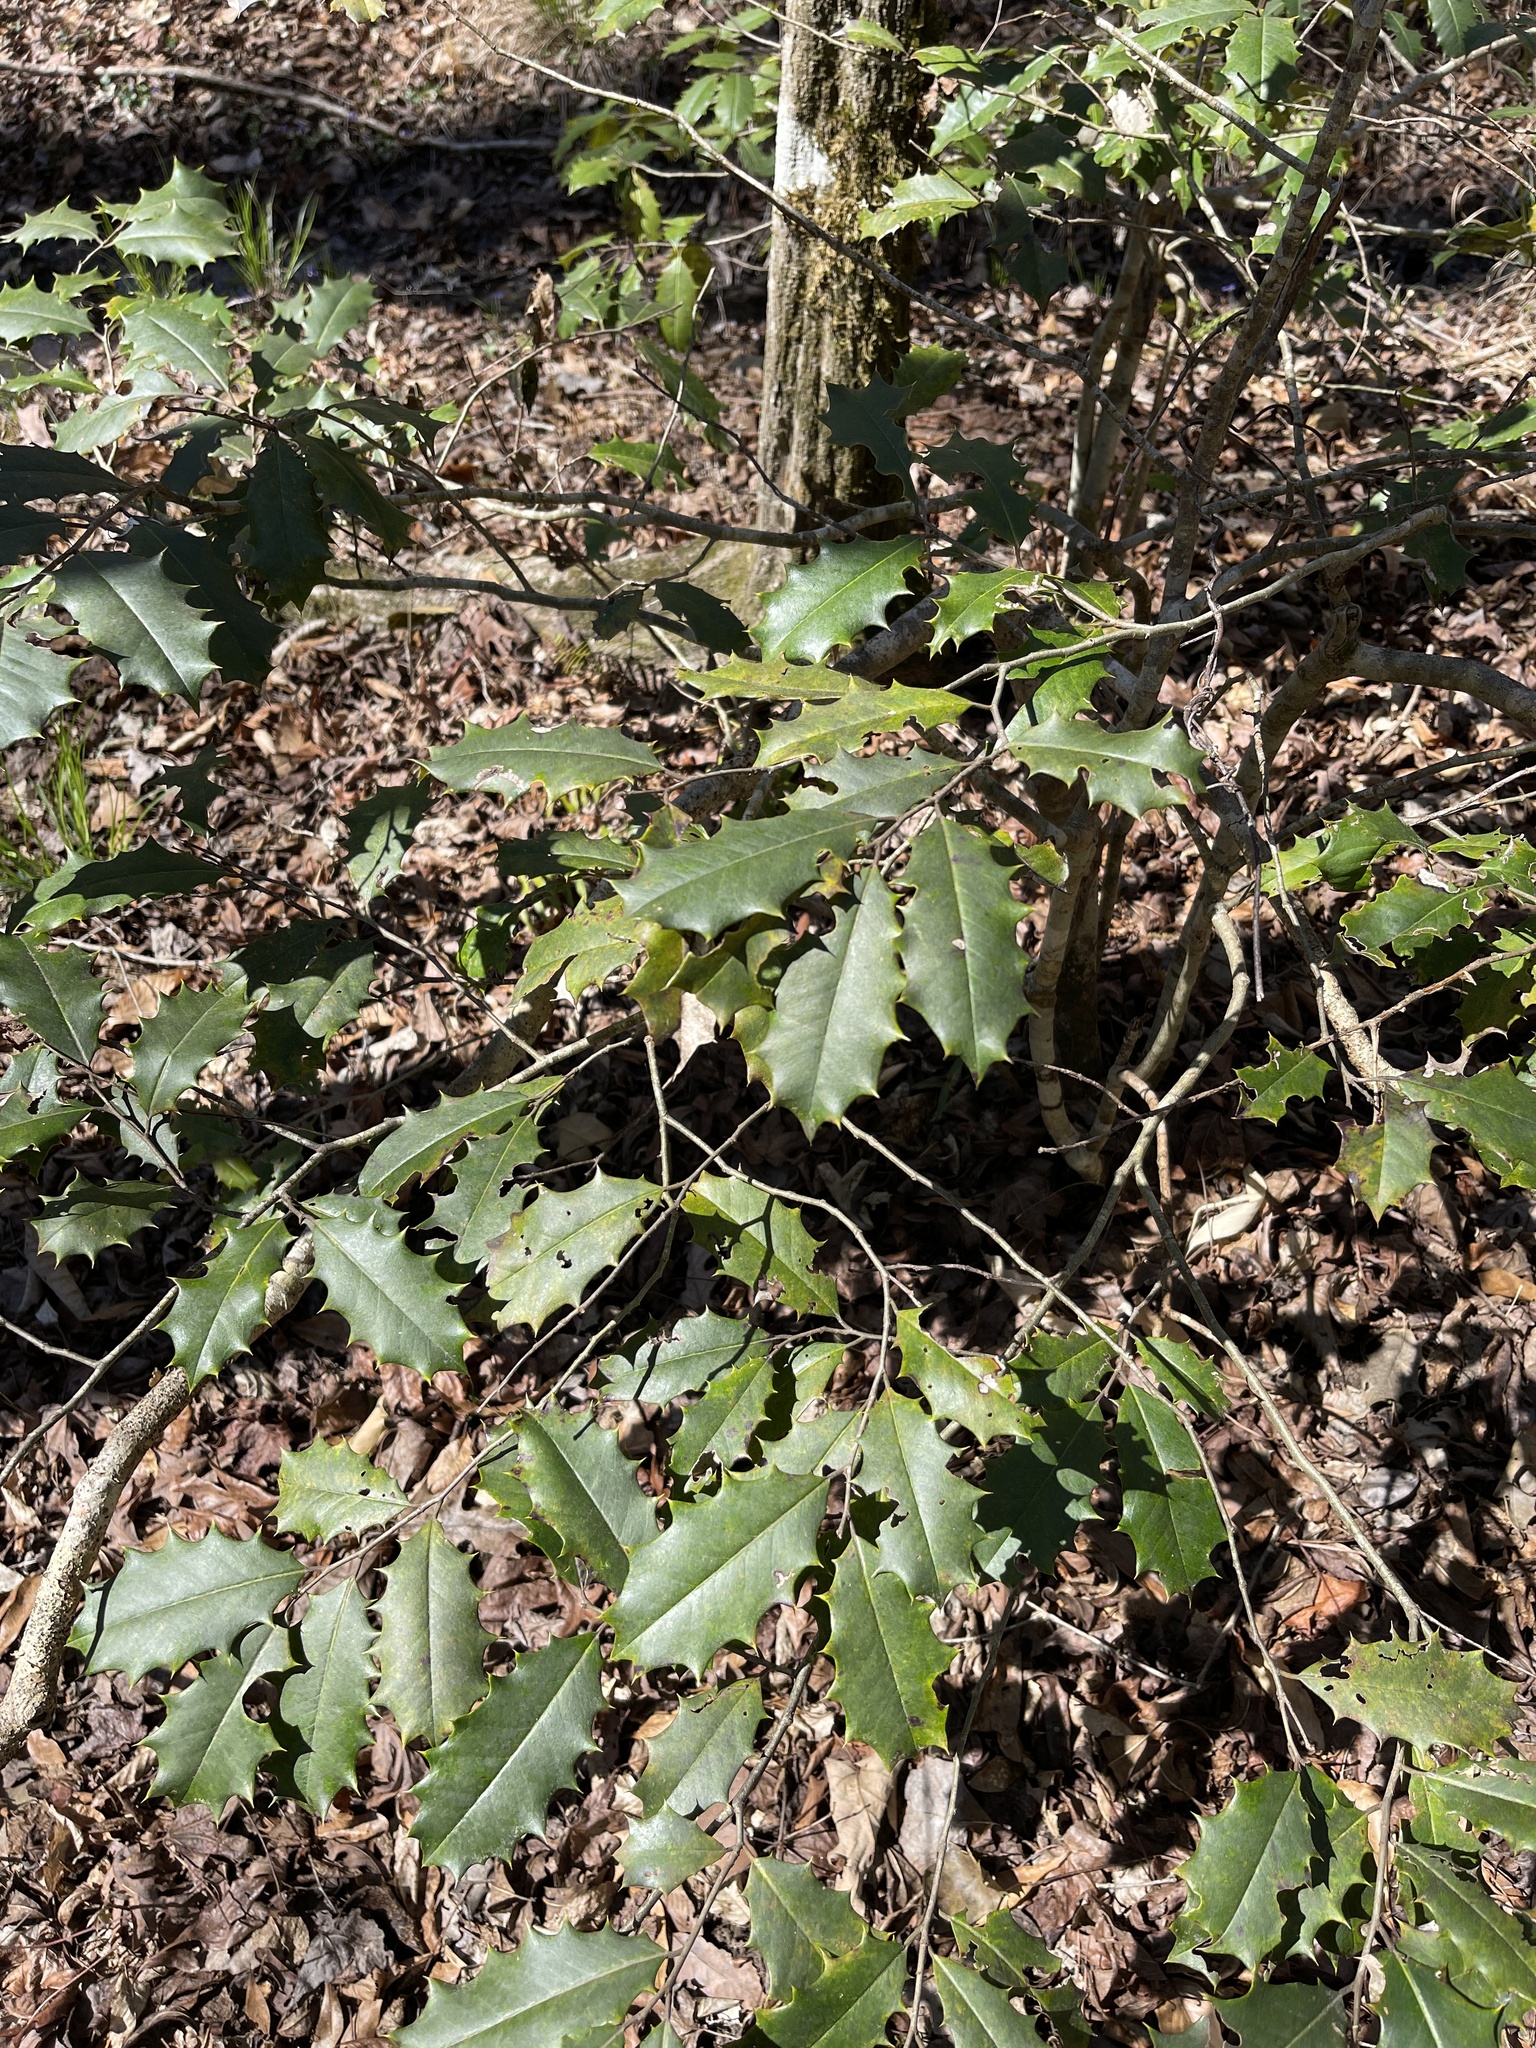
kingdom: Plantae
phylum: Tracheophyta
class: Magnoliopsida
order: Aquifoliales
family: Aquifoliaceae
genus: Ilex
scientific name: Ilex opaca
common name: American holly
